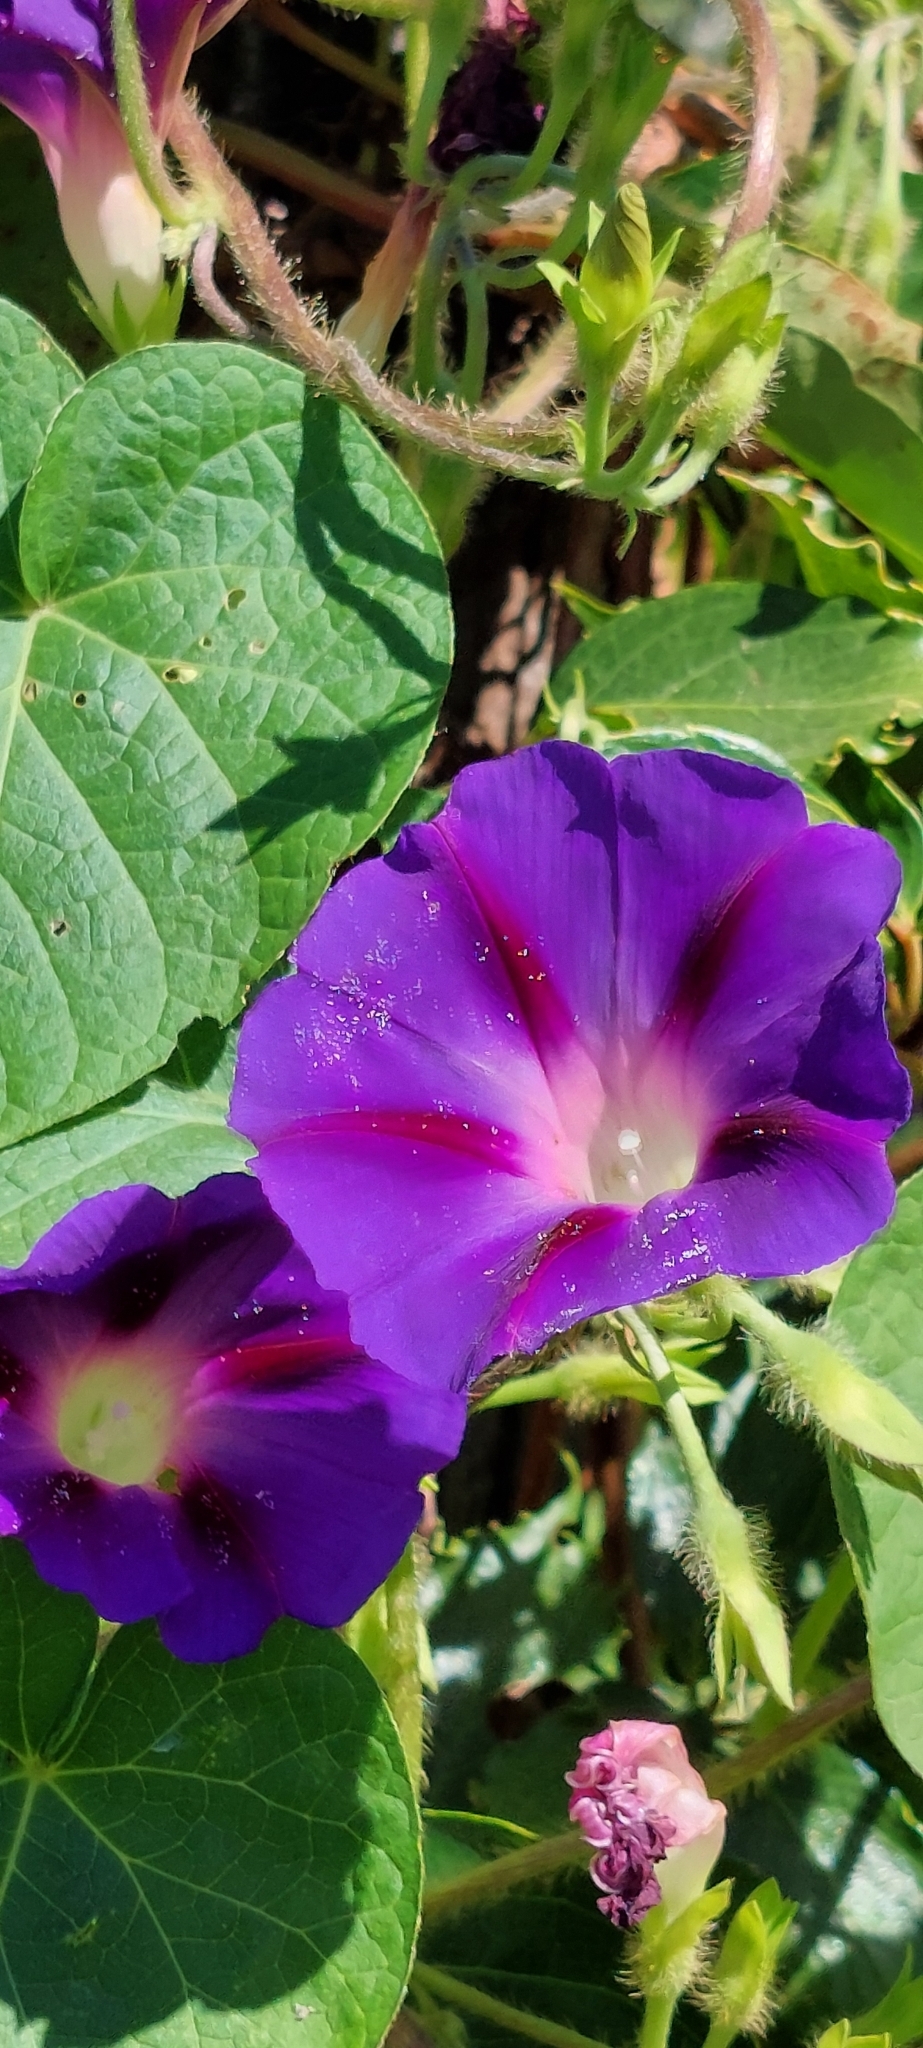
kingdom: Plantae
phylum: Tracheophyta
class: Magnoliopsida
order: Solanales
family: Convolvulaceae
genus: Ipomoea
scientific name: Ipomoea purpurea
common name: Common morning-glory
